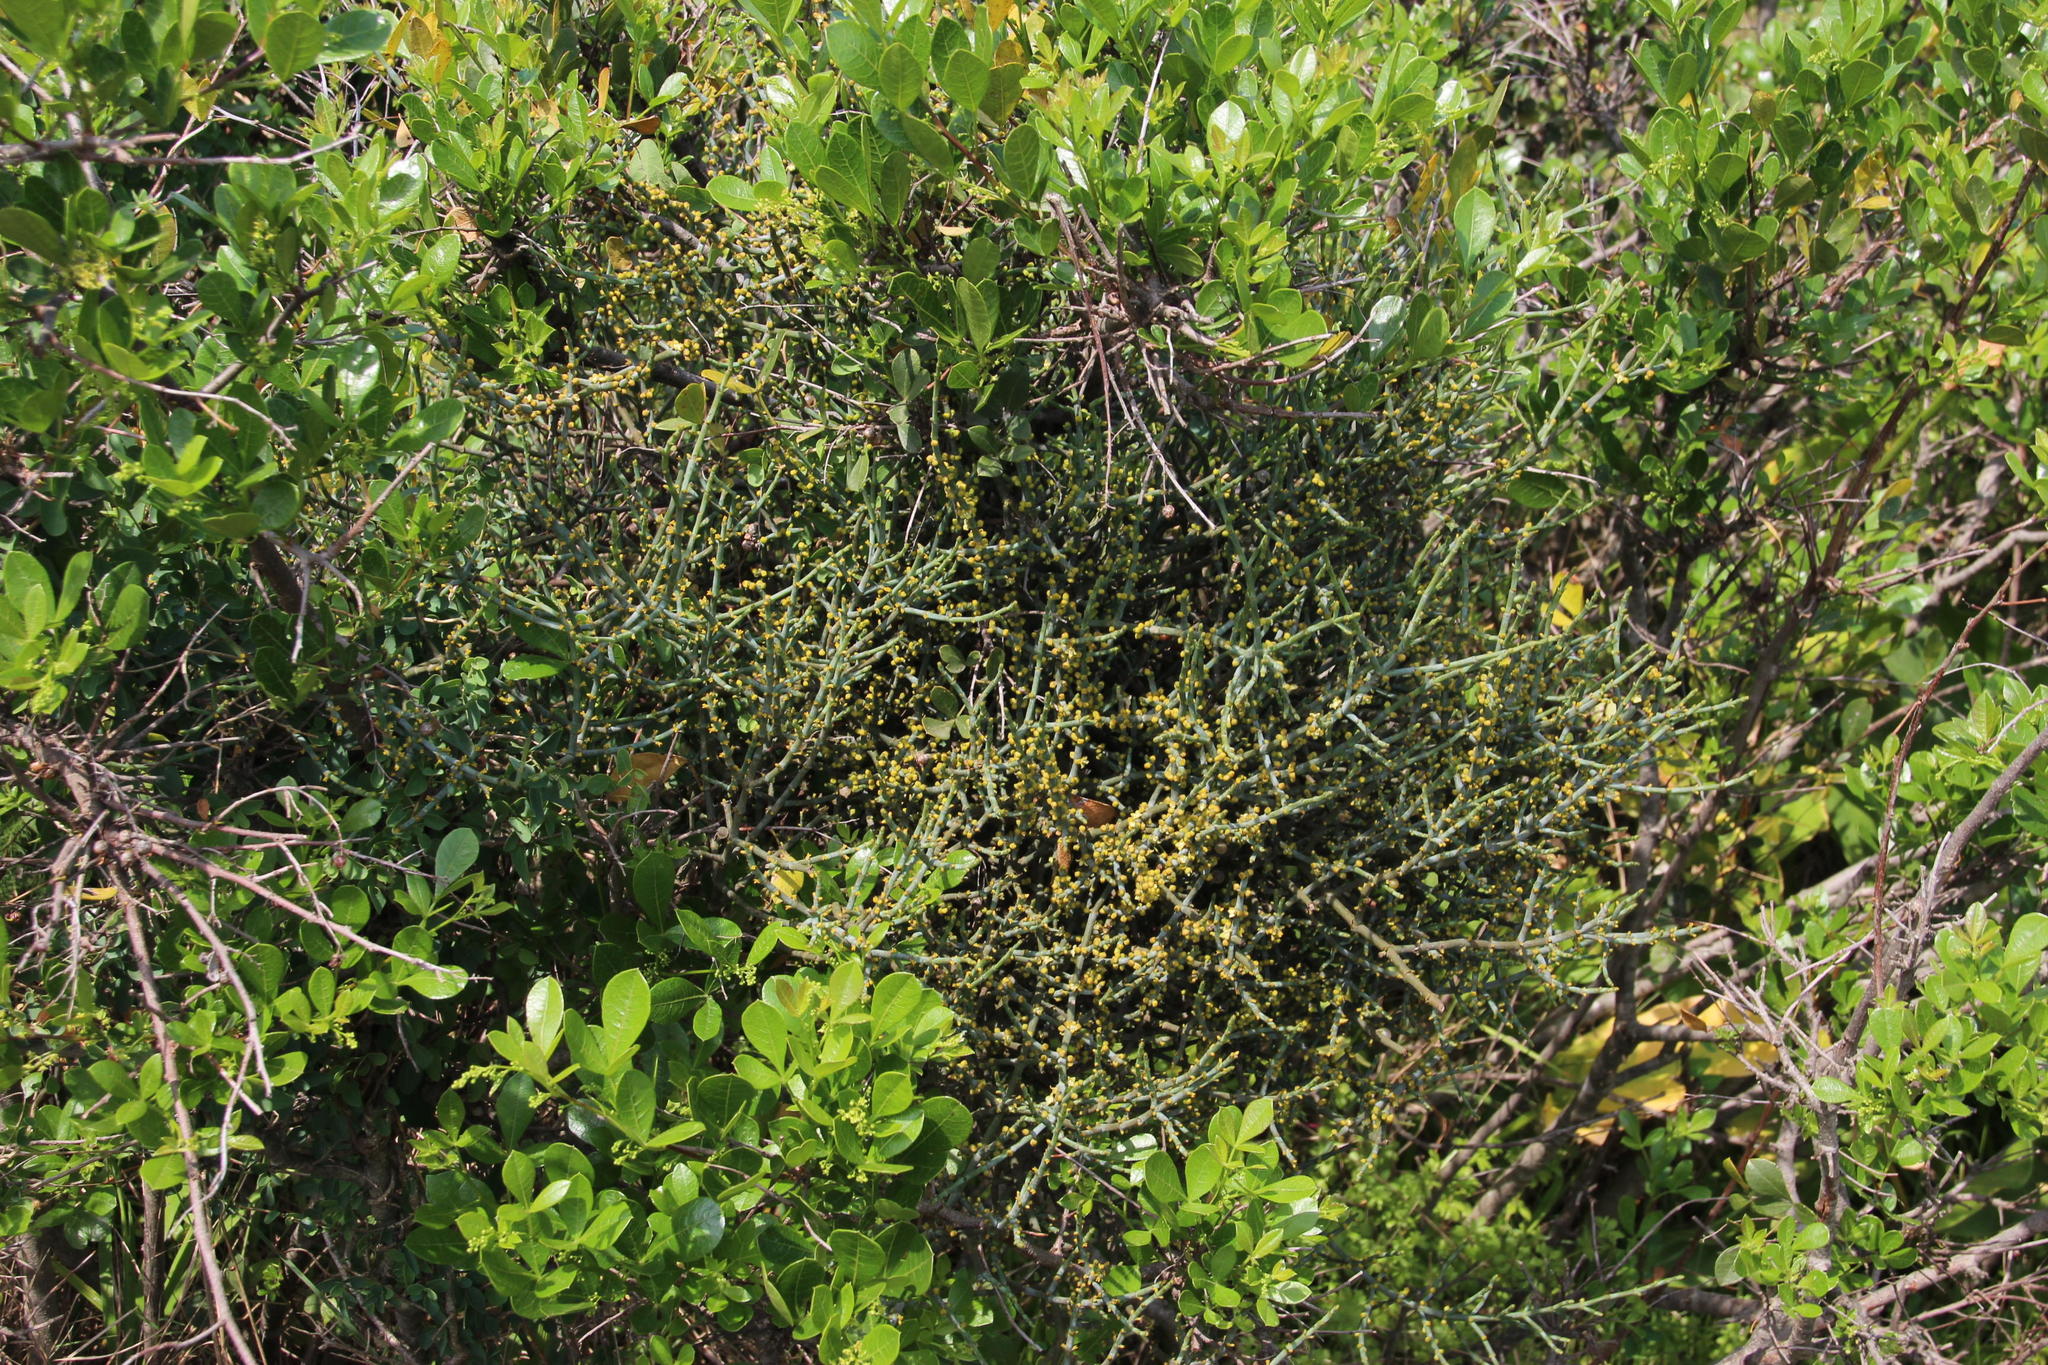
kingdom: Plantae
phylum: Tracheophyta
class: Magnoliopsida
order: Sapindales
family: Anacardiaceae
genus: Searsia
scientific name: Searsia laevigata
